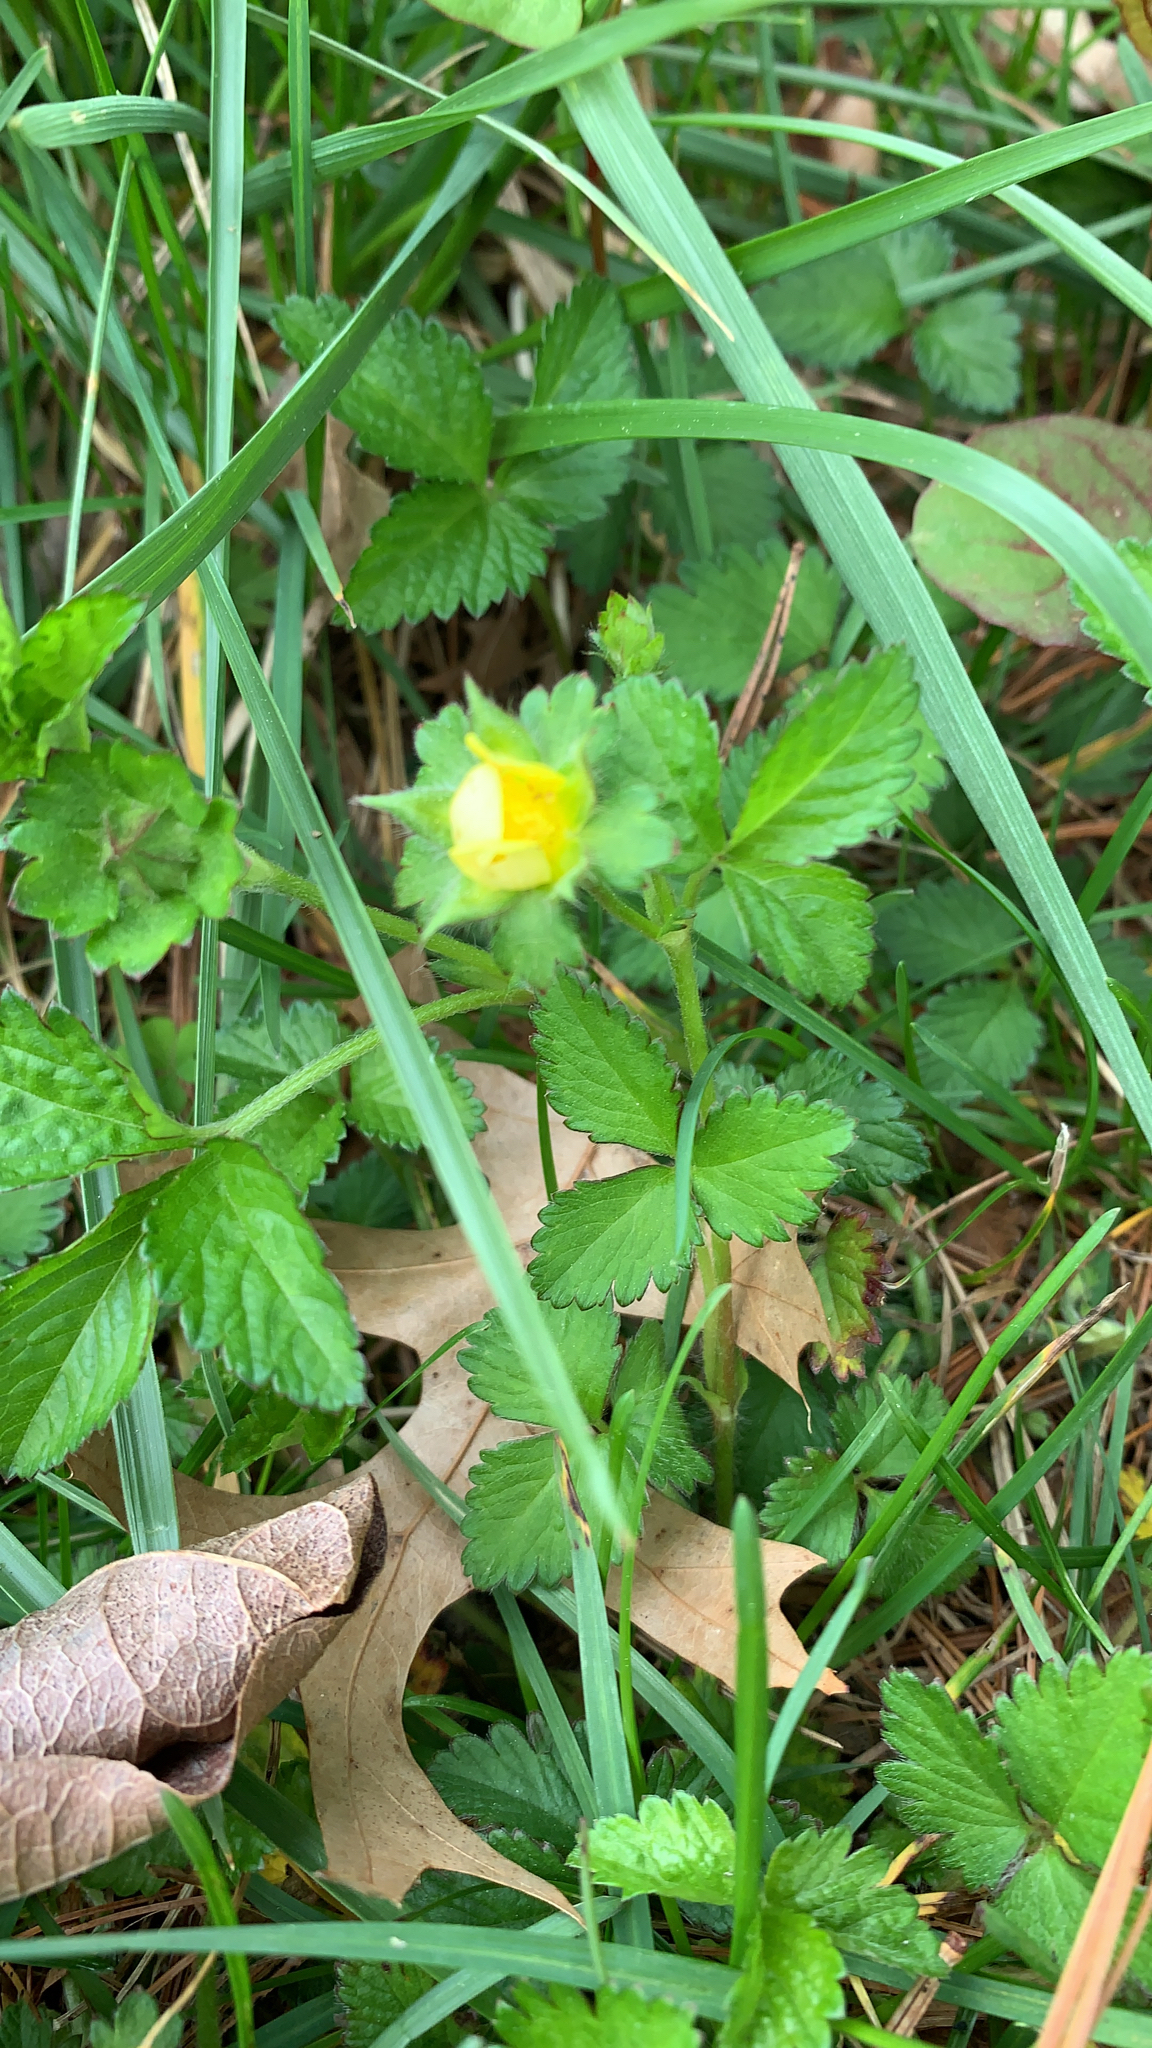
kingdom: Plantae
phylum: Tracheophyta
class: Magnoliopsida
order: Rosales
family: Rosaceae
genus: Potentilla
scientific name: Potentilla indica
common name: Yellow-flowered strawberry
